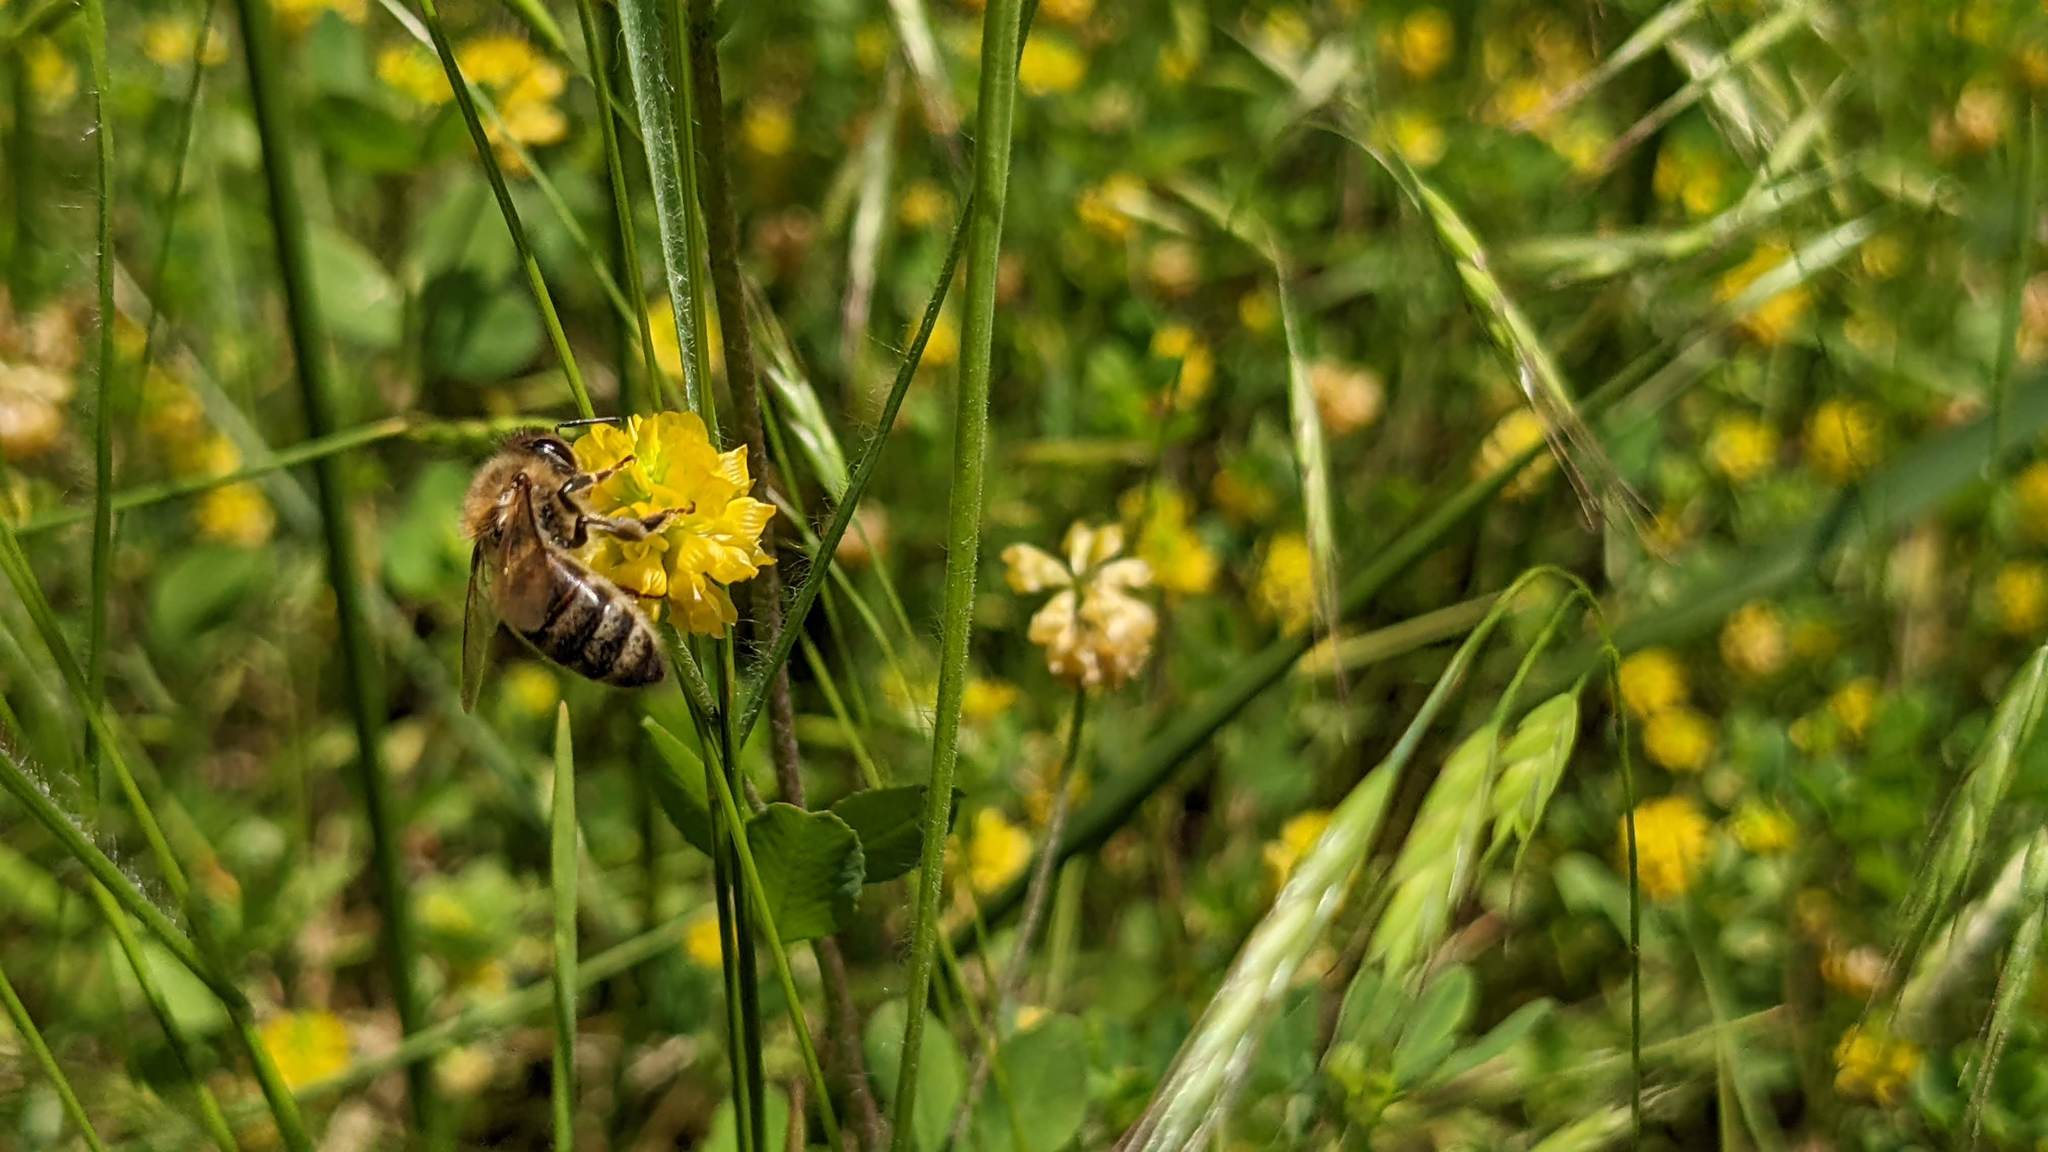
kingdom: Plantae
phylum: Tracheophyta
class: Magnoliopsida
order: Fabales
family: Fabaceae
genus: Trifolium
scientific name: Trifolium campestre
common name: Field clover
